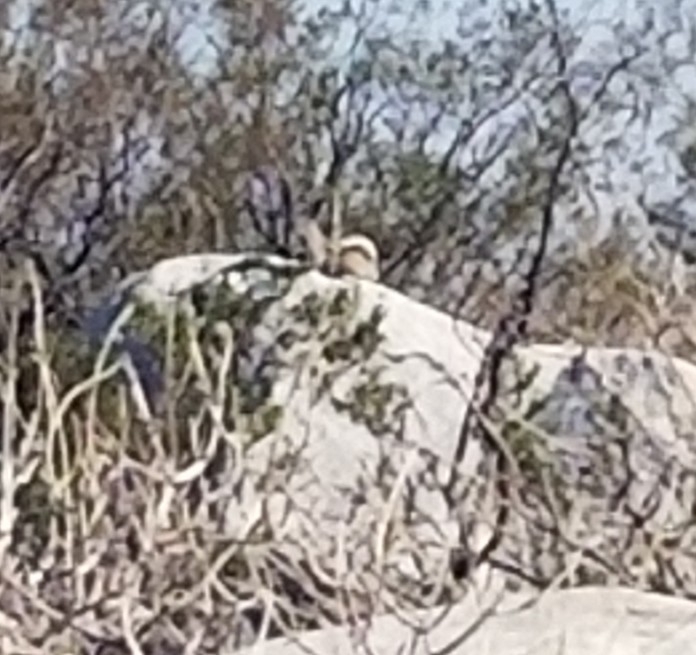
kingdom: Animalia
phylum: Chordata
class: Mammalia
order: Rodentia
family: Sciuridae
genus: Ammospermophilus
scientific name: Ammospermophilus leucurus
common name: White-tailed antelope squirrel
